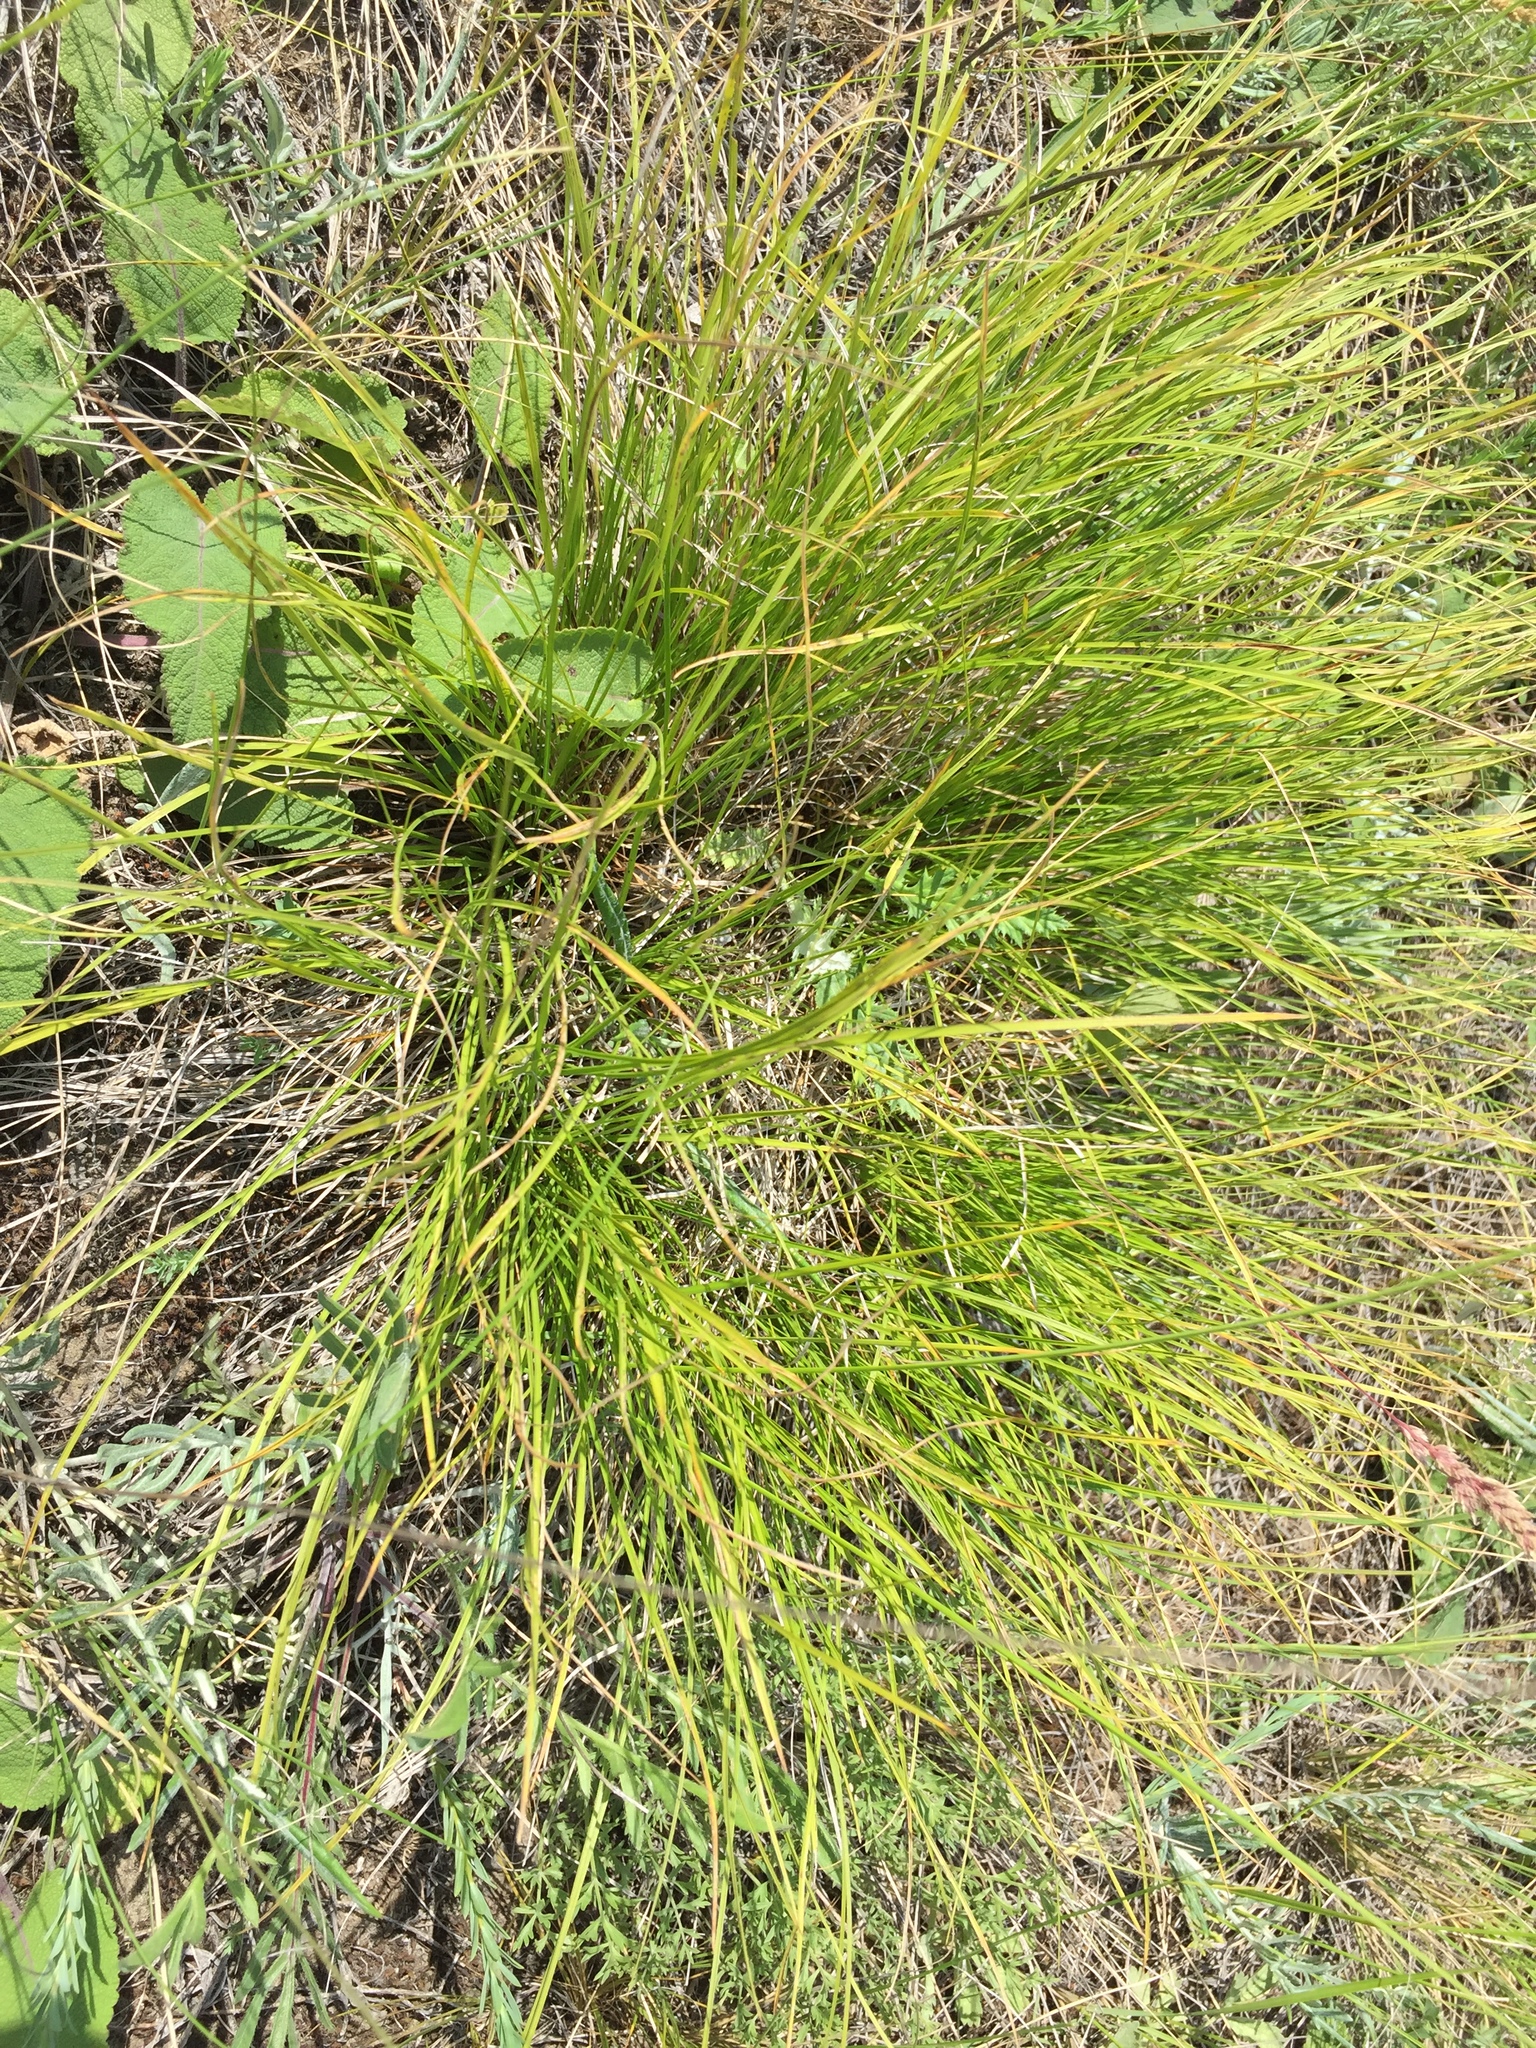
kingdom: Plantae
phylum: Tracheophyta
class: Liliopsida
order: Poales
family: Cyperaceae
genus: Carex
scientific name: Carex humilis
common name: Dwarf sedge
